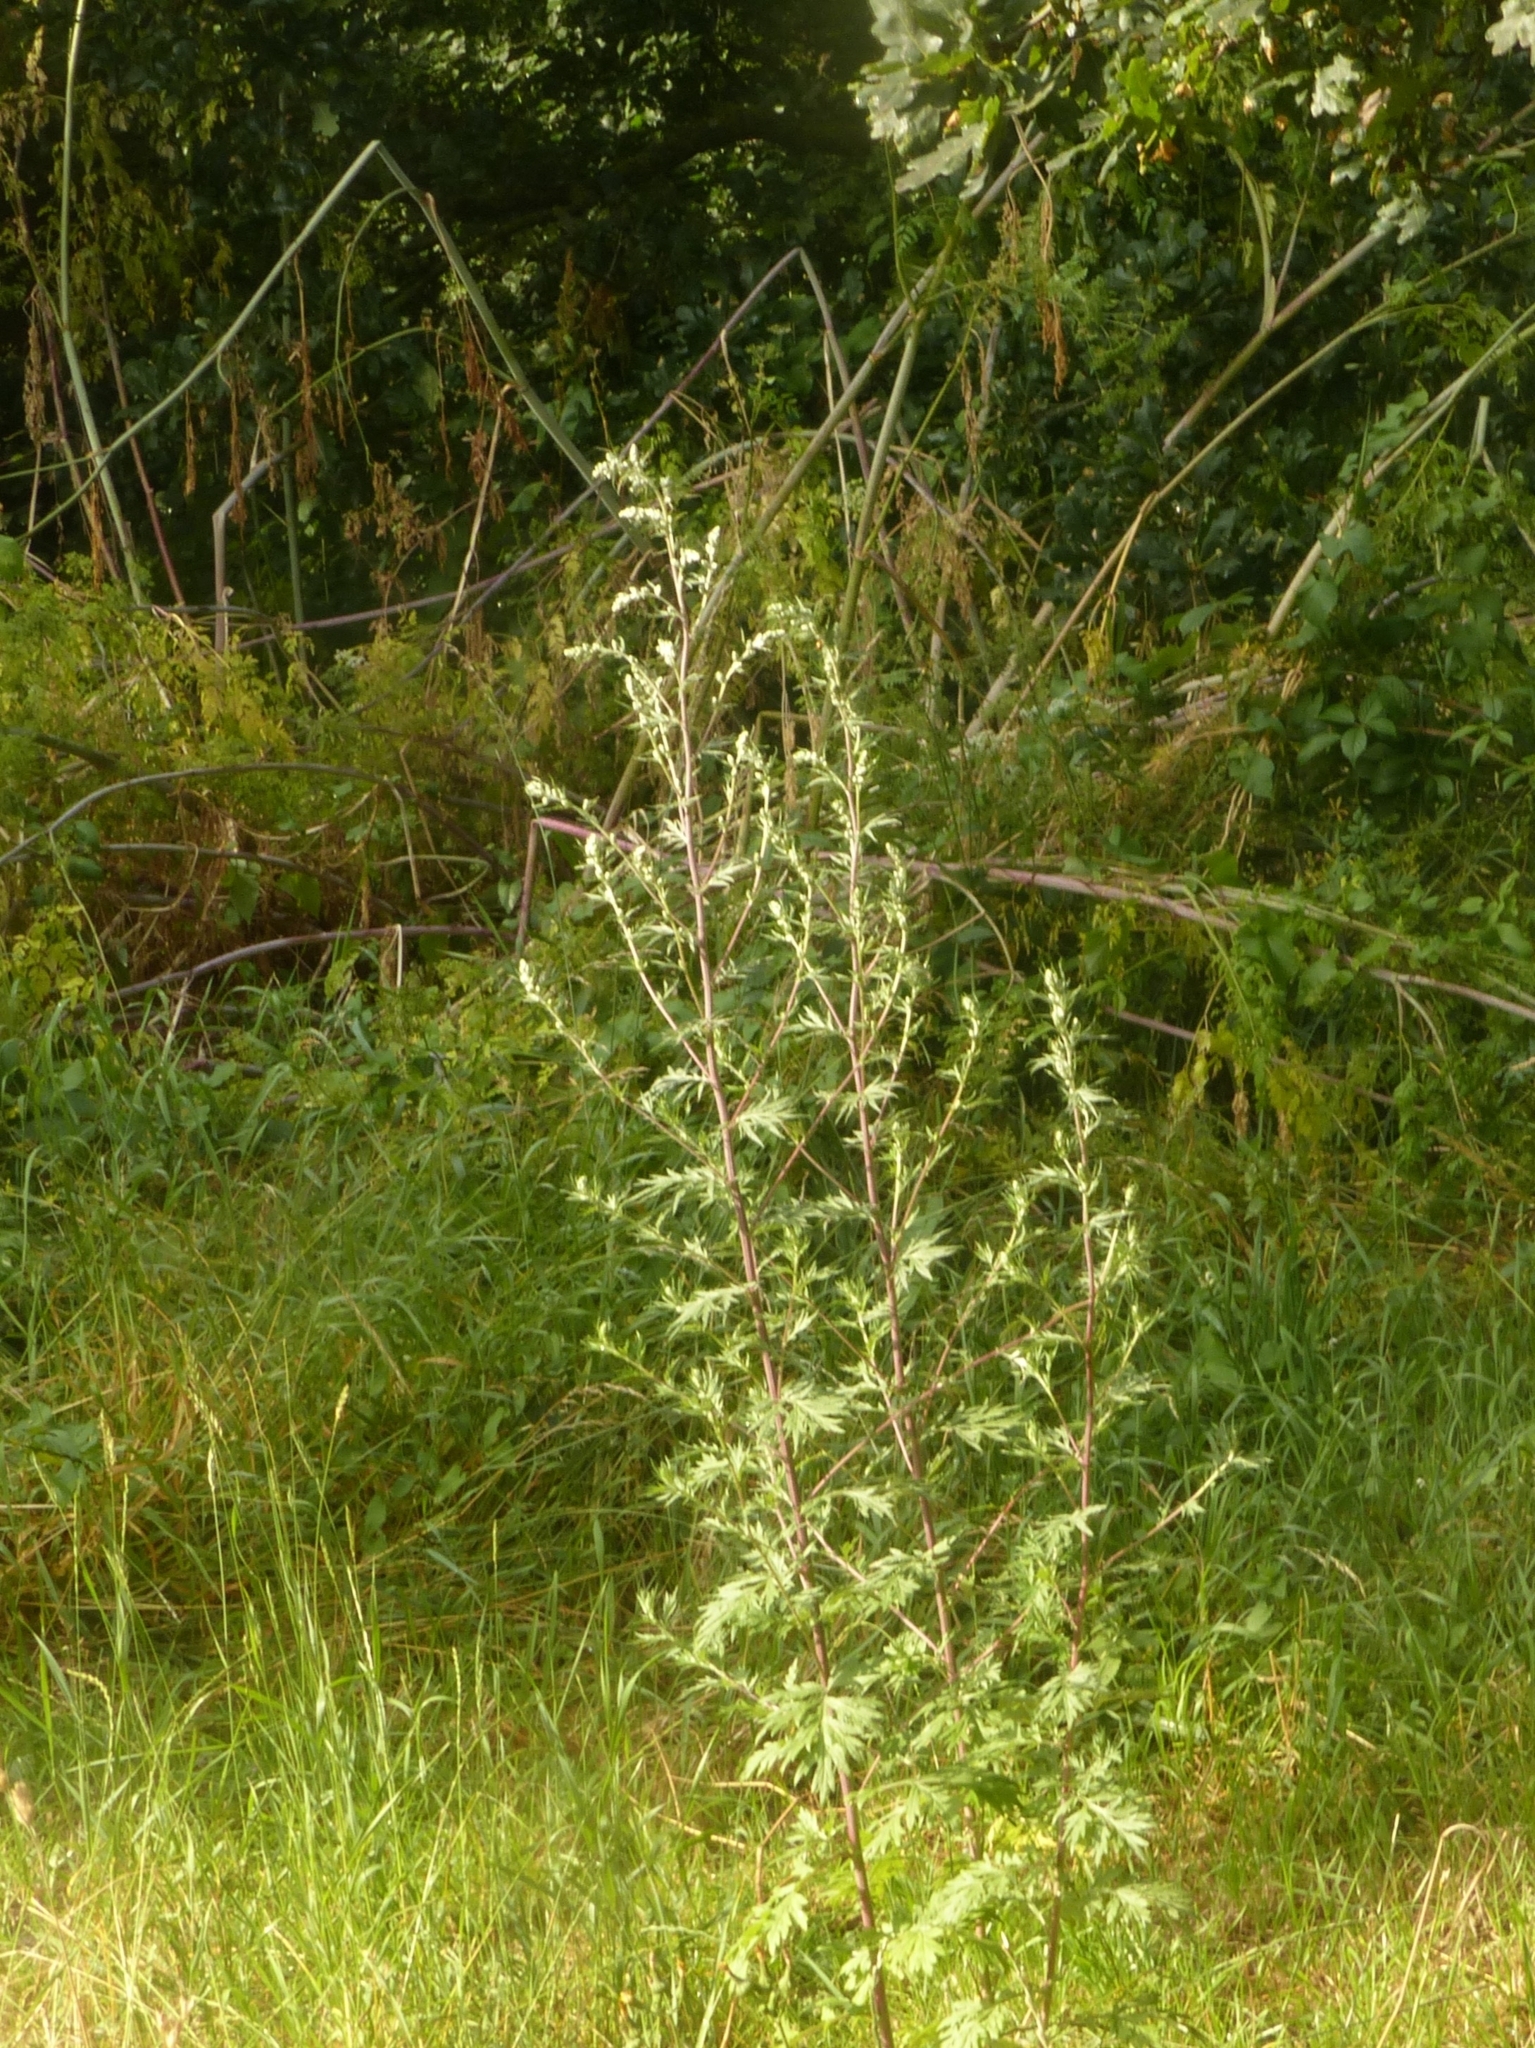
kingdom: Plantae
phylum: Tracheophyta
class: Magnoliopsida
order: Asterales
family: Asteraceae
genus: Artemisia
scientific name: Artemisia vulgaris
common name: Mugwort
